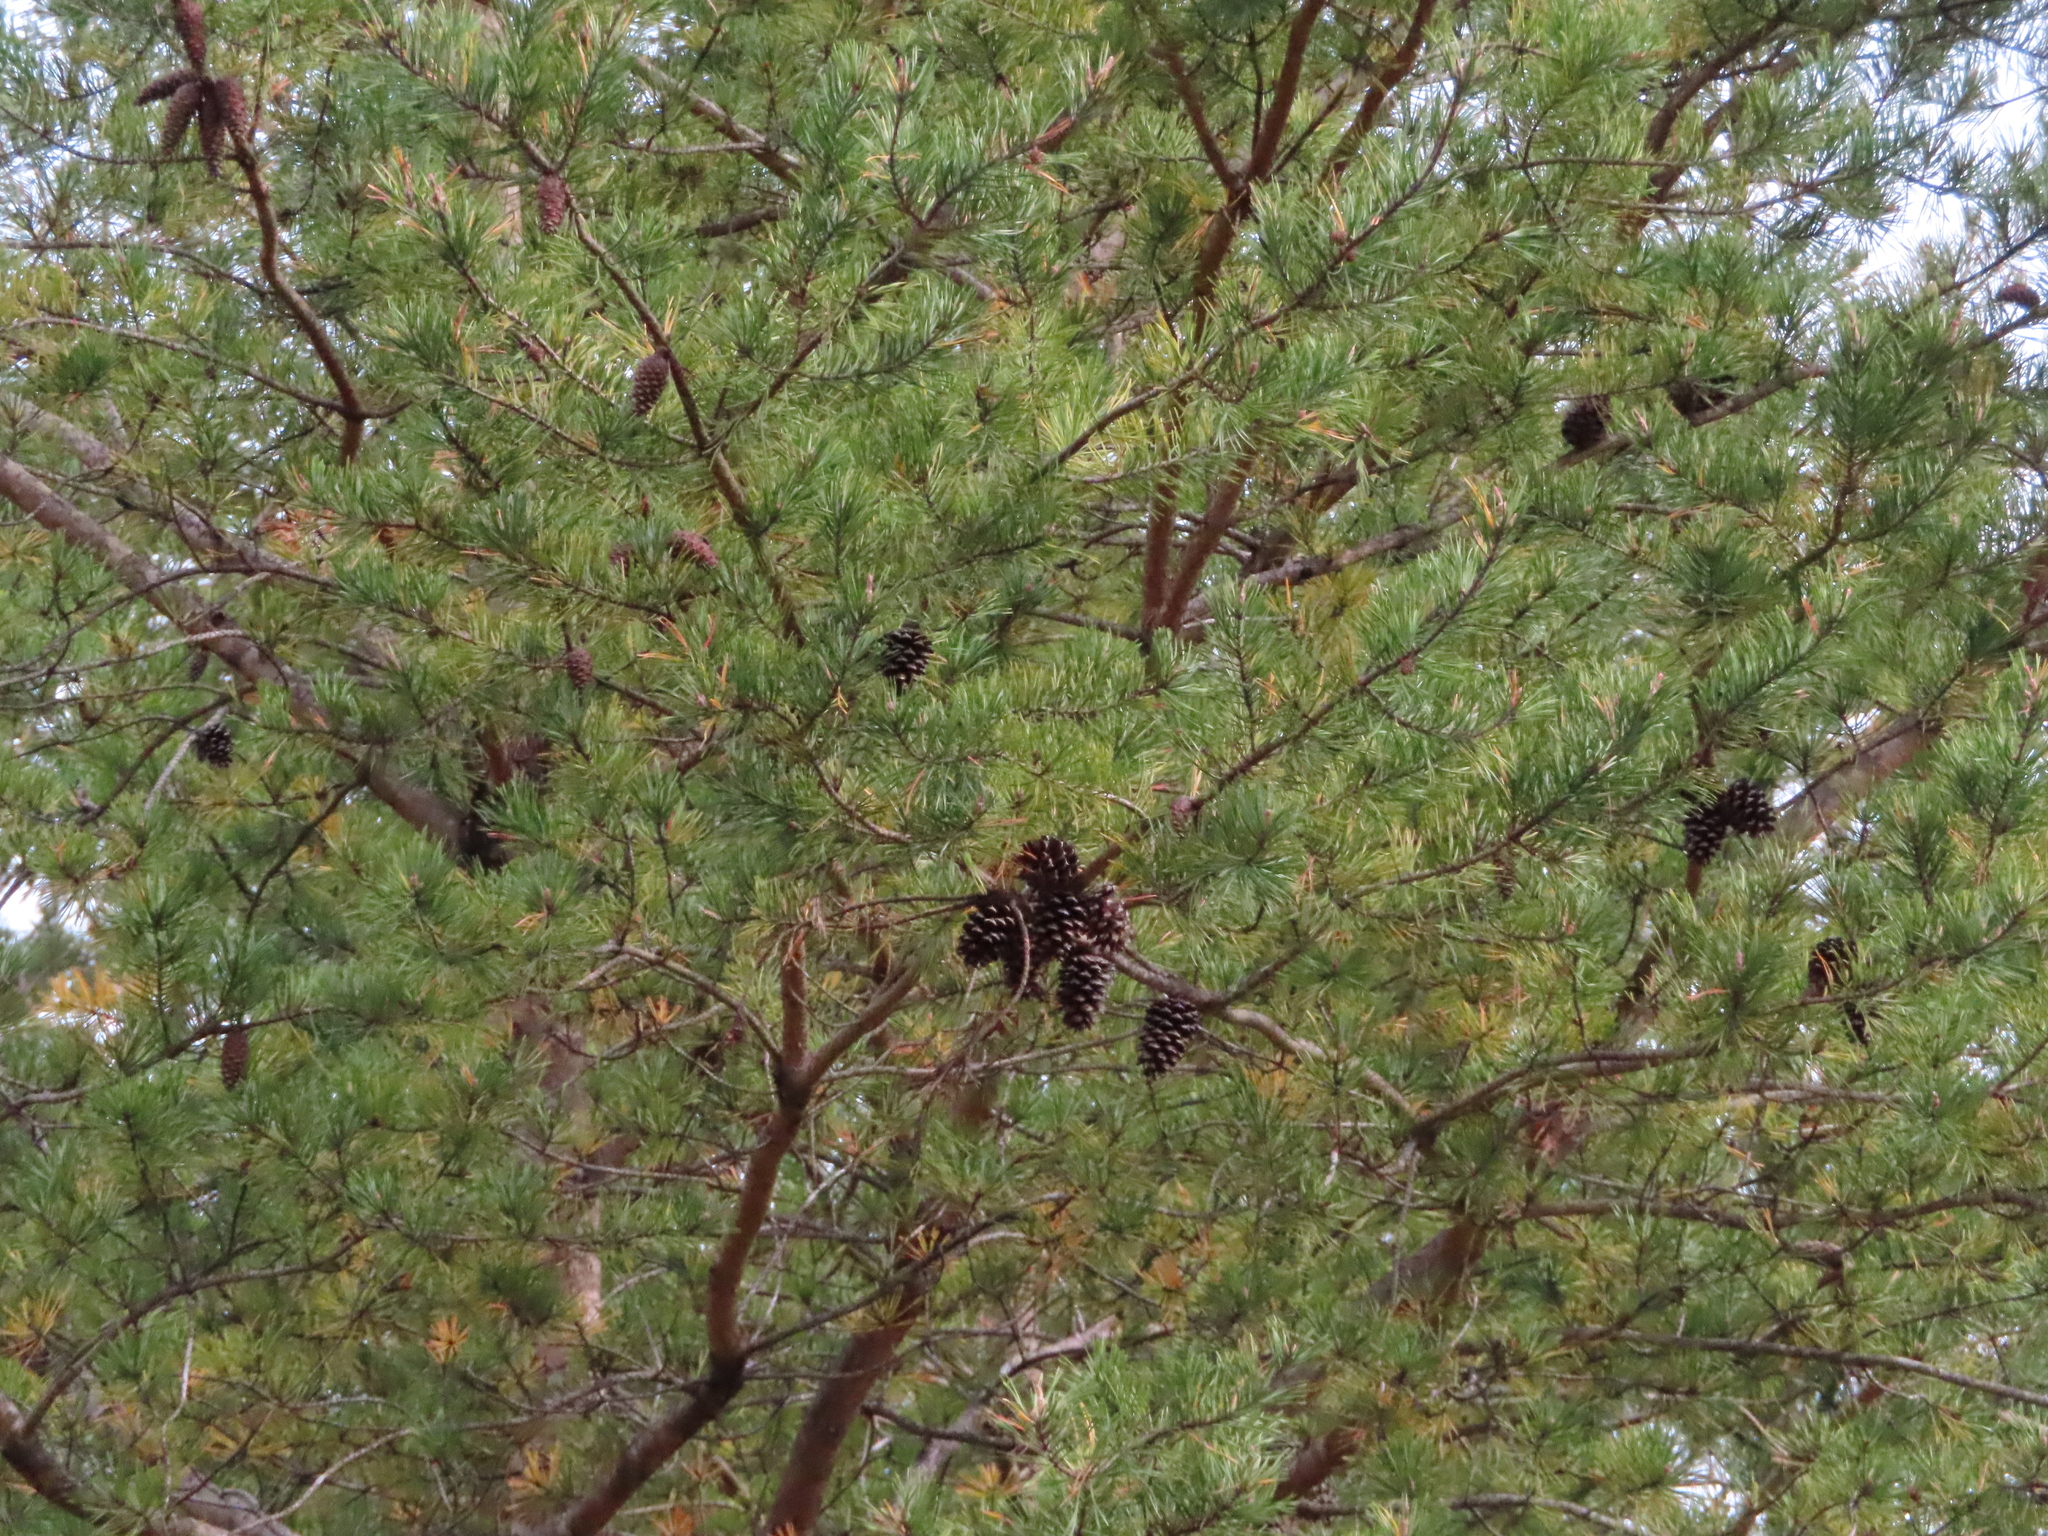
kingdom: Plantae
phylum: Tracheophyta
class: Pinopsida
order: Pinales
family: Pinaceae
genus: Pinus
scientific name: Pinus virginiana
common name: Scrub pine
